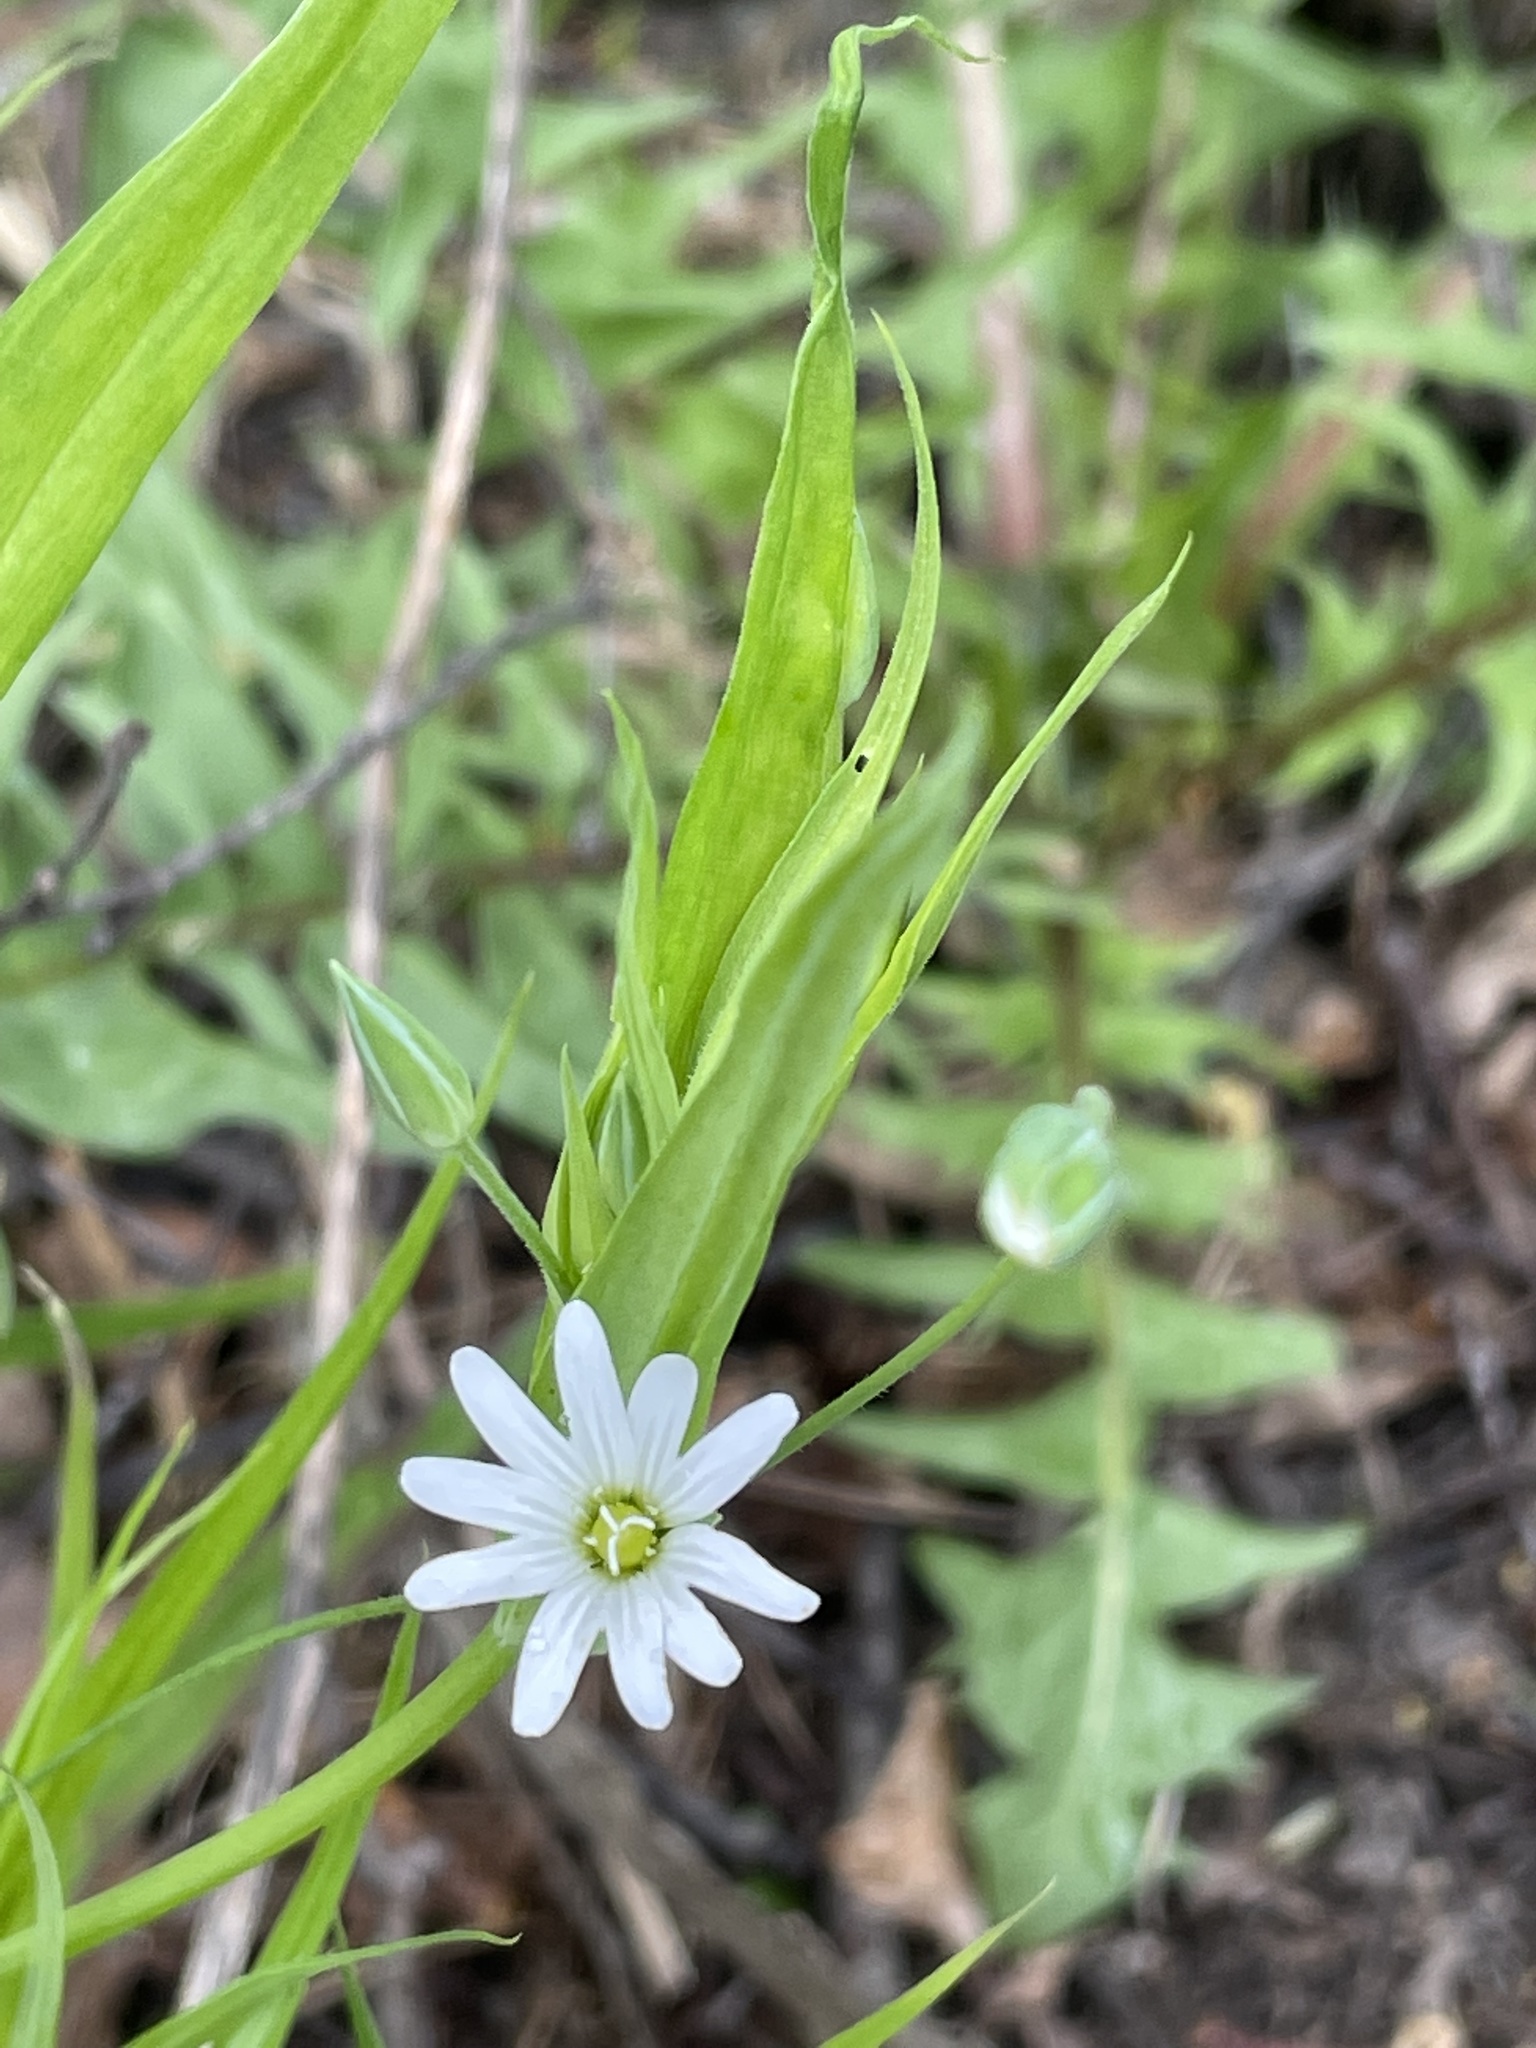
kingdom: Plantae
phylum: Tracheophyta
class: Magnoliopsida
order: Caryophyllales
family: Caryophyllaceae
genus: Rabelera
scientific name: Rabelera holostea
